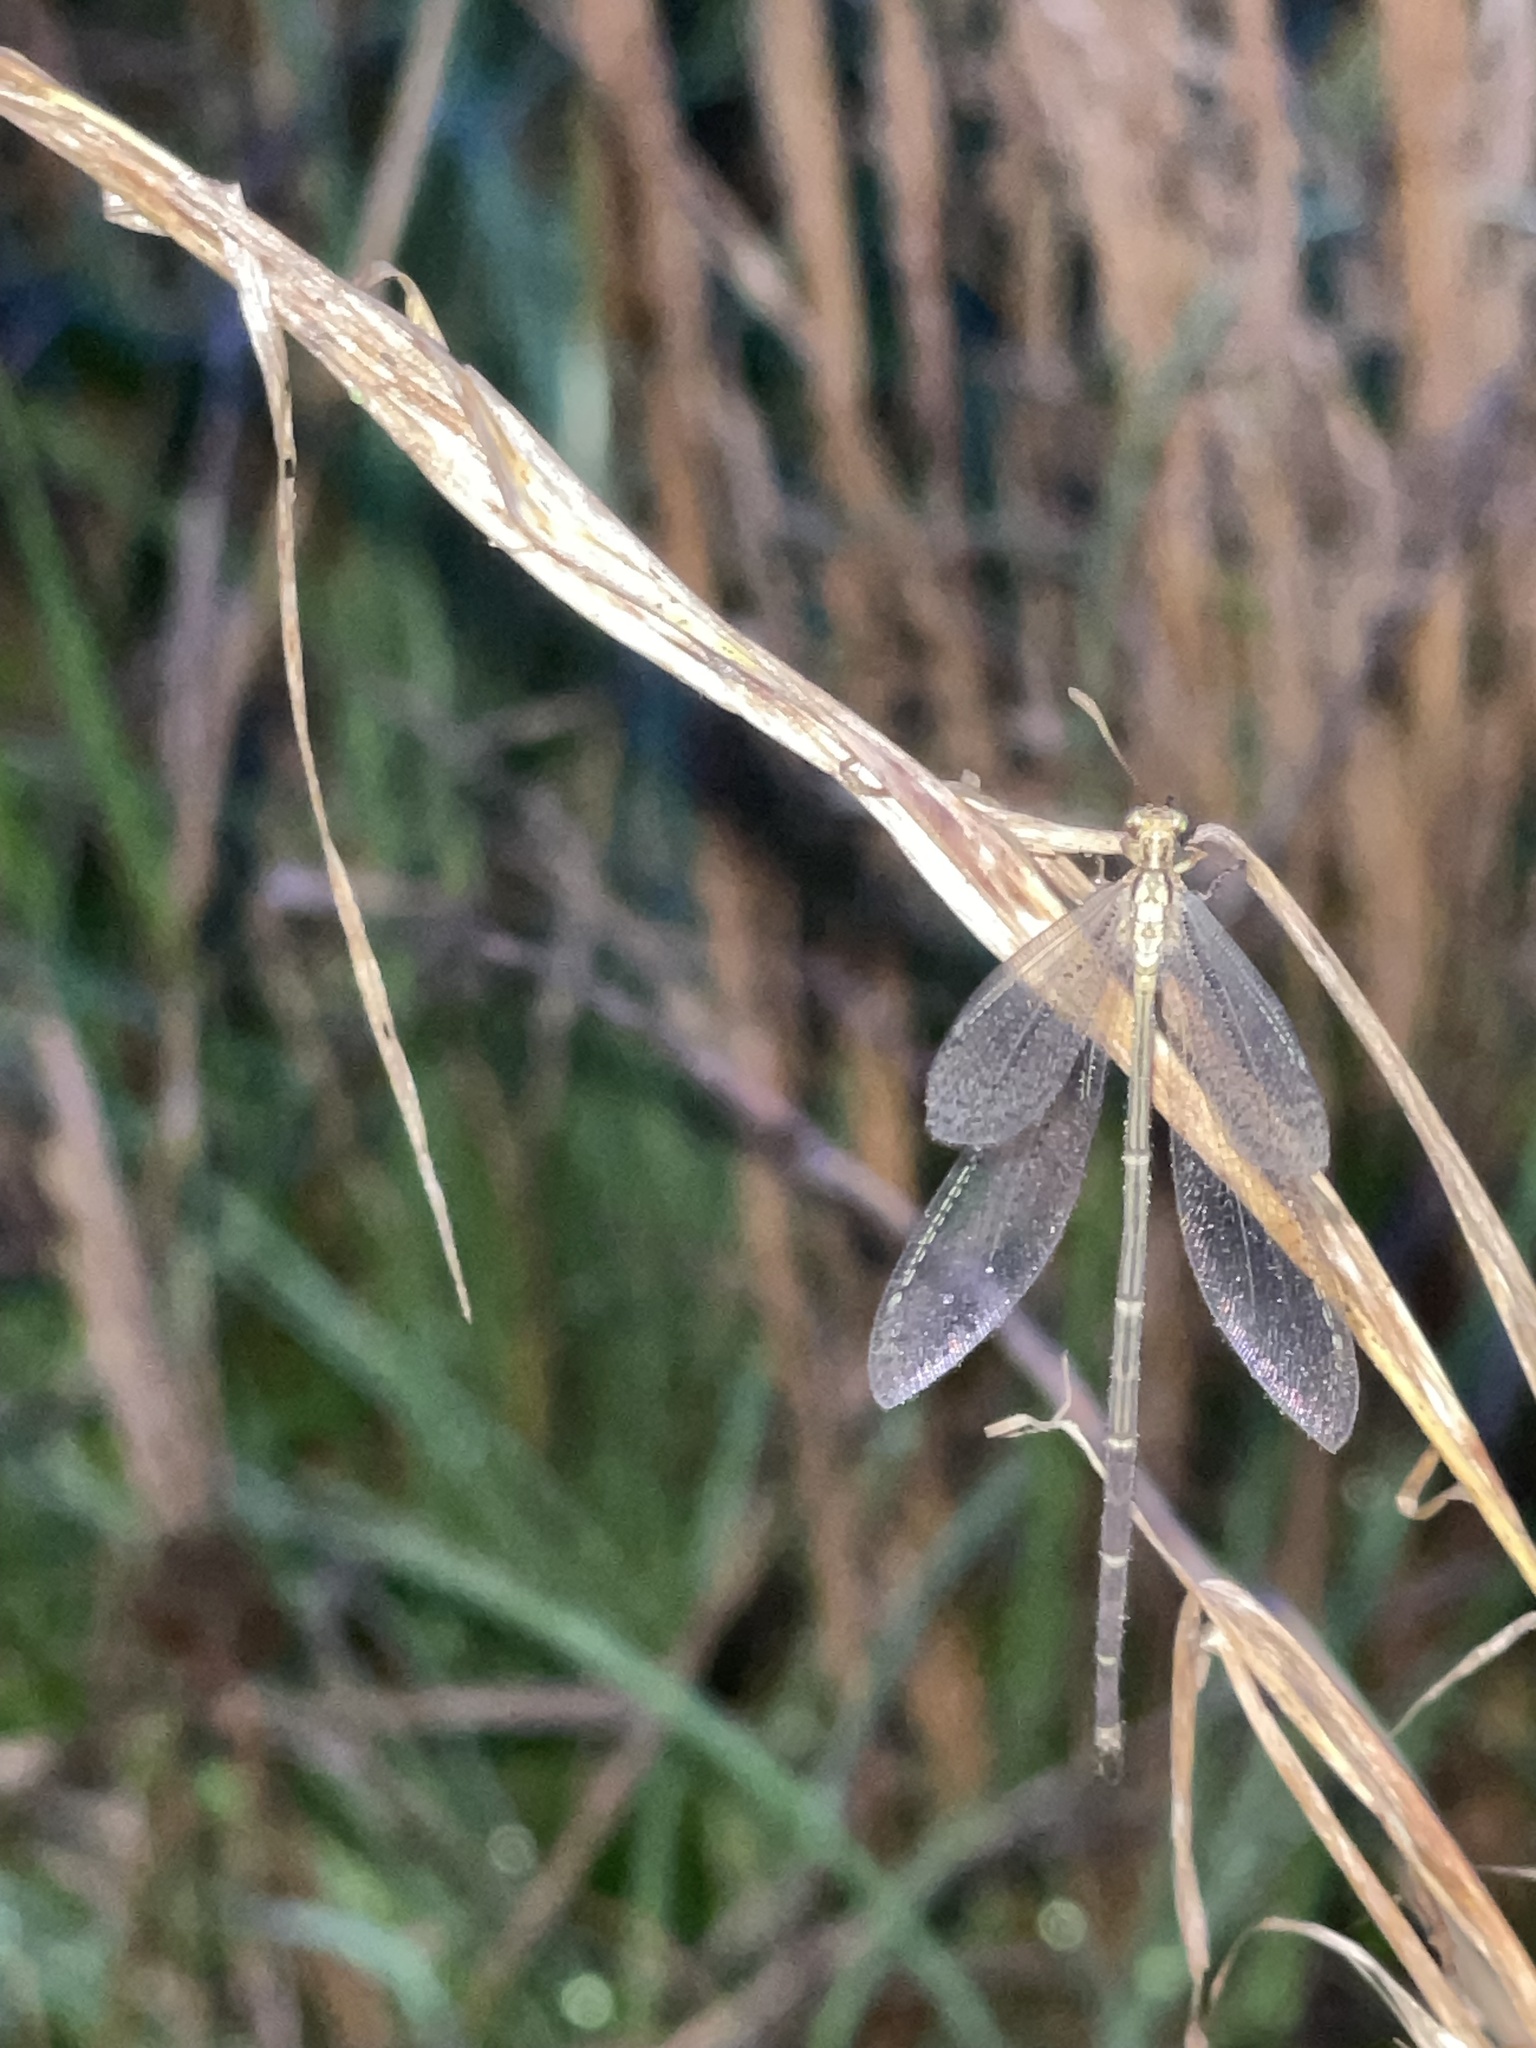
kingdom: Animalia
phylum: Arthropoda
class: Insecta
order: Neuroptera
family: Myrmeleontidae
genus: Brachynemurus
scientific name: Brachynemurus abdominalis
